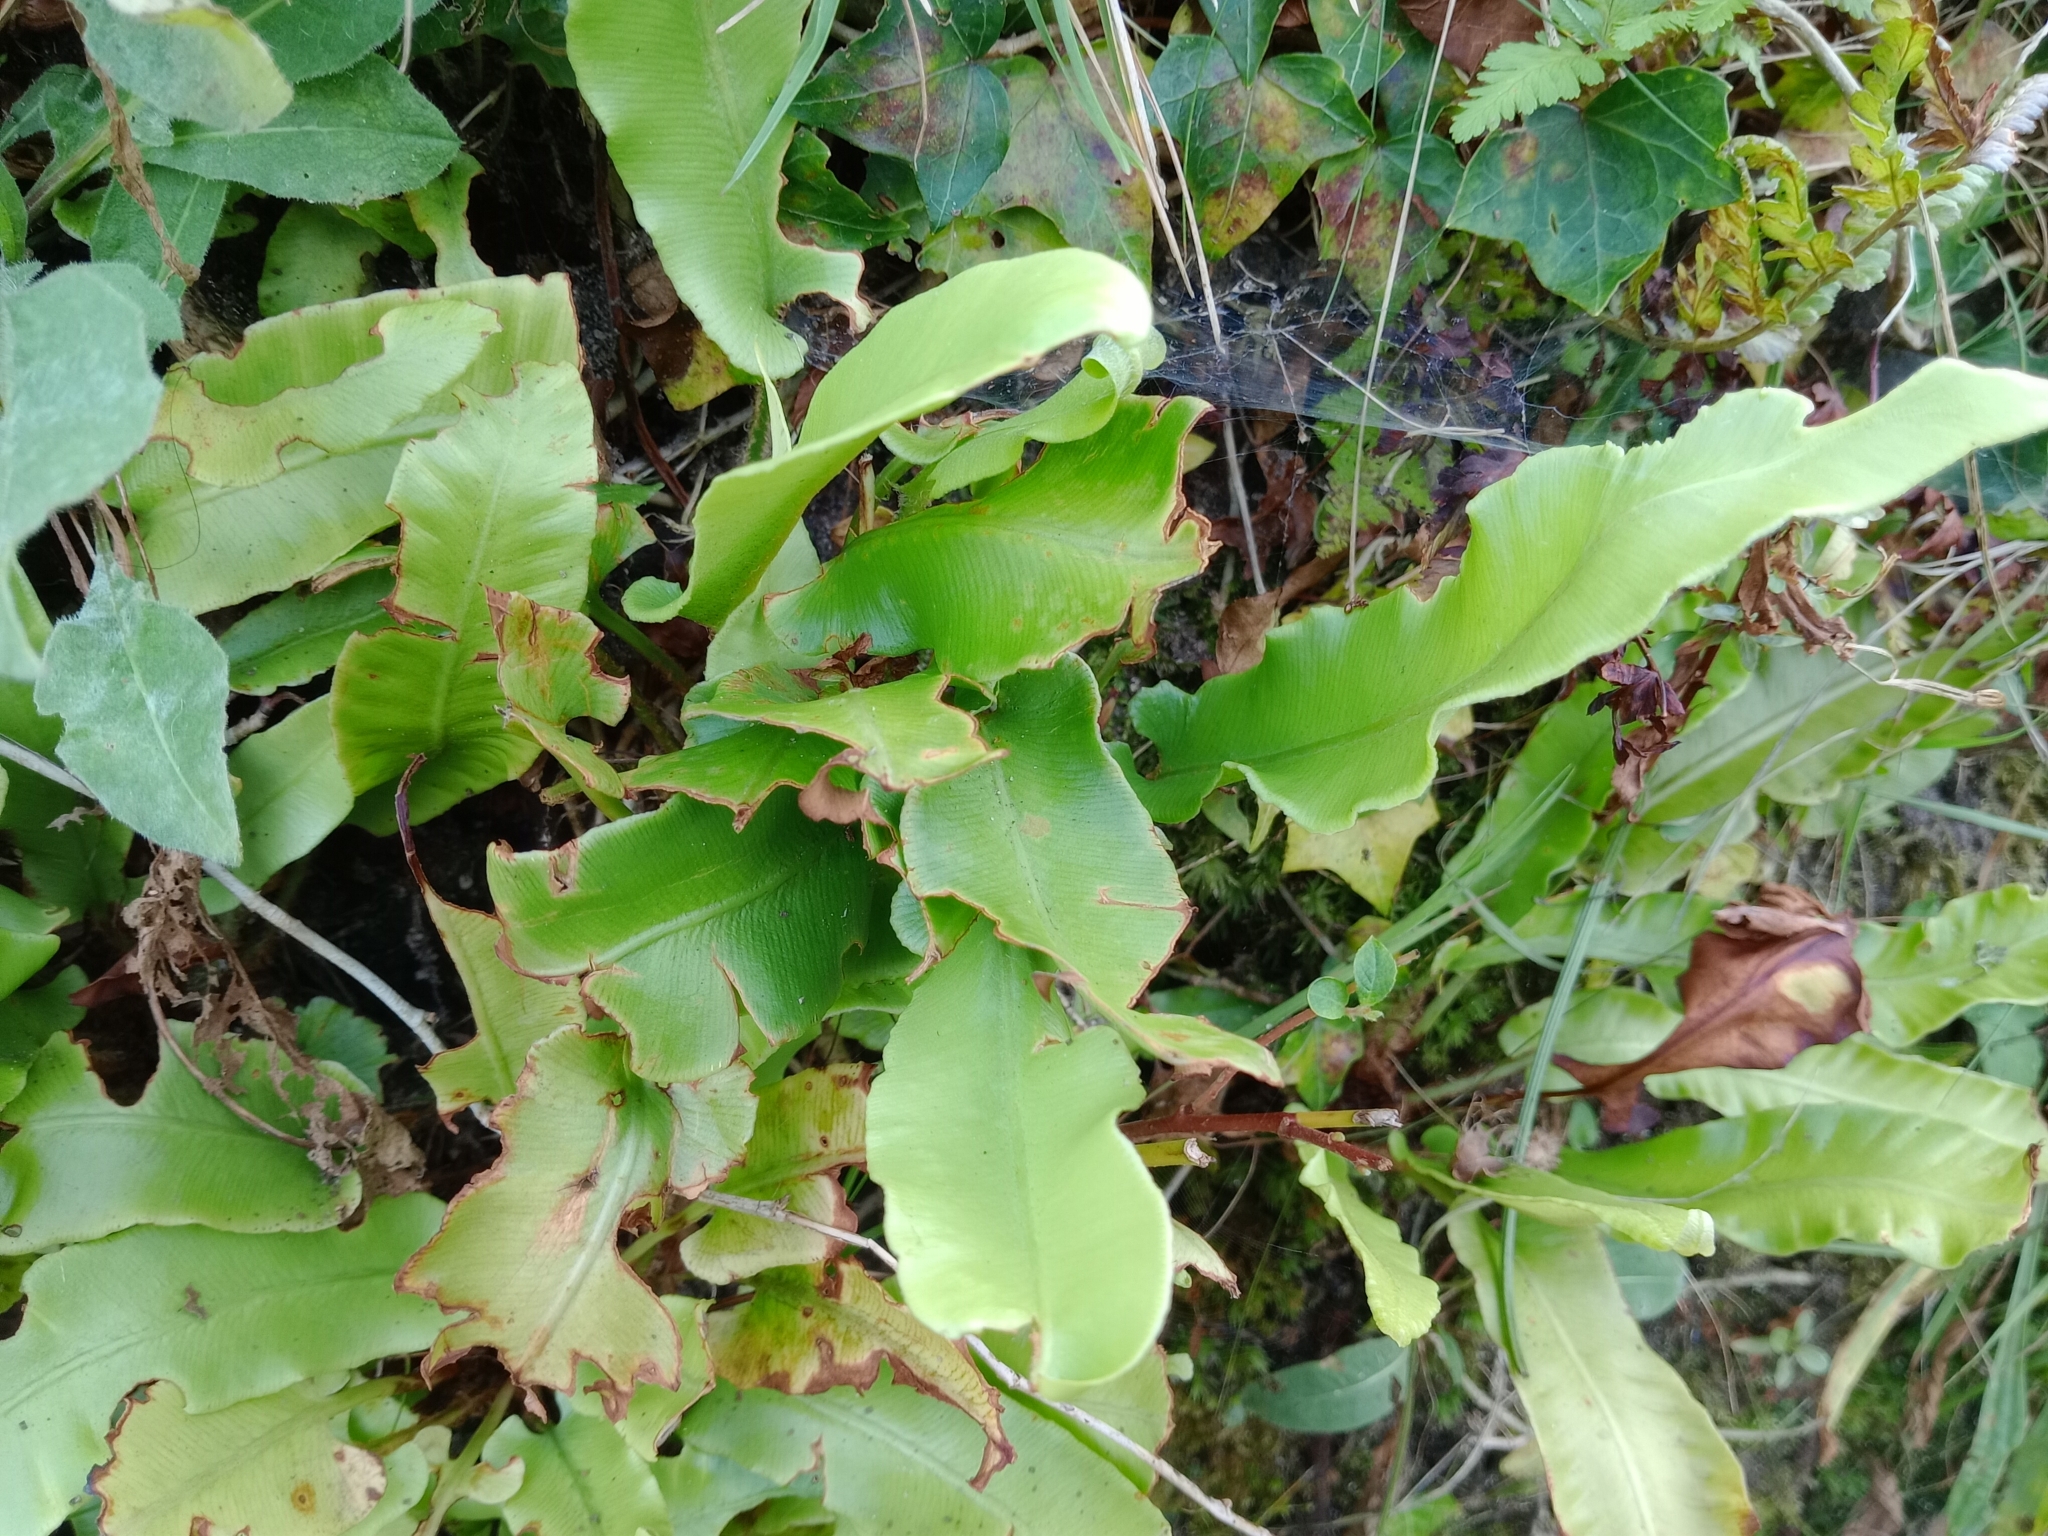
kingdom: Plantae
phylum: Tracheophyta
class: Polypodiopsida
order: Polypodiales
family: Aspleniaceae
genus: Asplenium
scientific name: Asplenium scolopendrium
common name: Hart's-tongue fern
